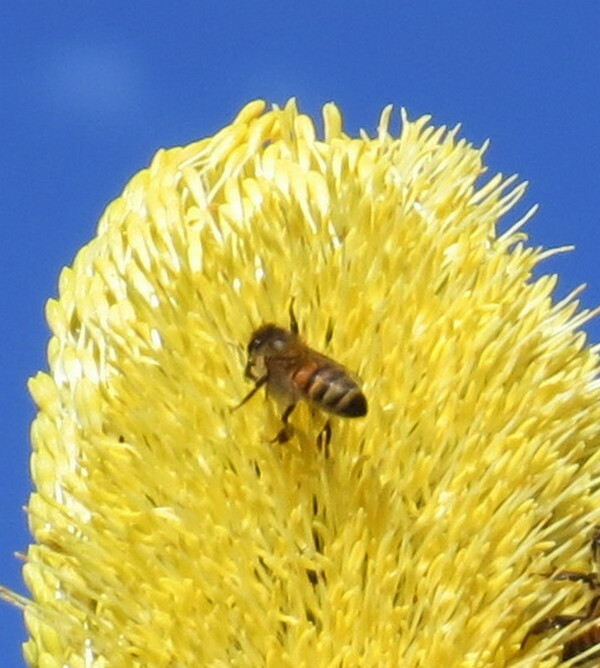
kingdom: Animalia
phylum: Arthropoda
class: Insecta
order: Hymenoptera
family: Apidae
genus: Apis
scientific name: Apis mellifera
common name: Honey bee
